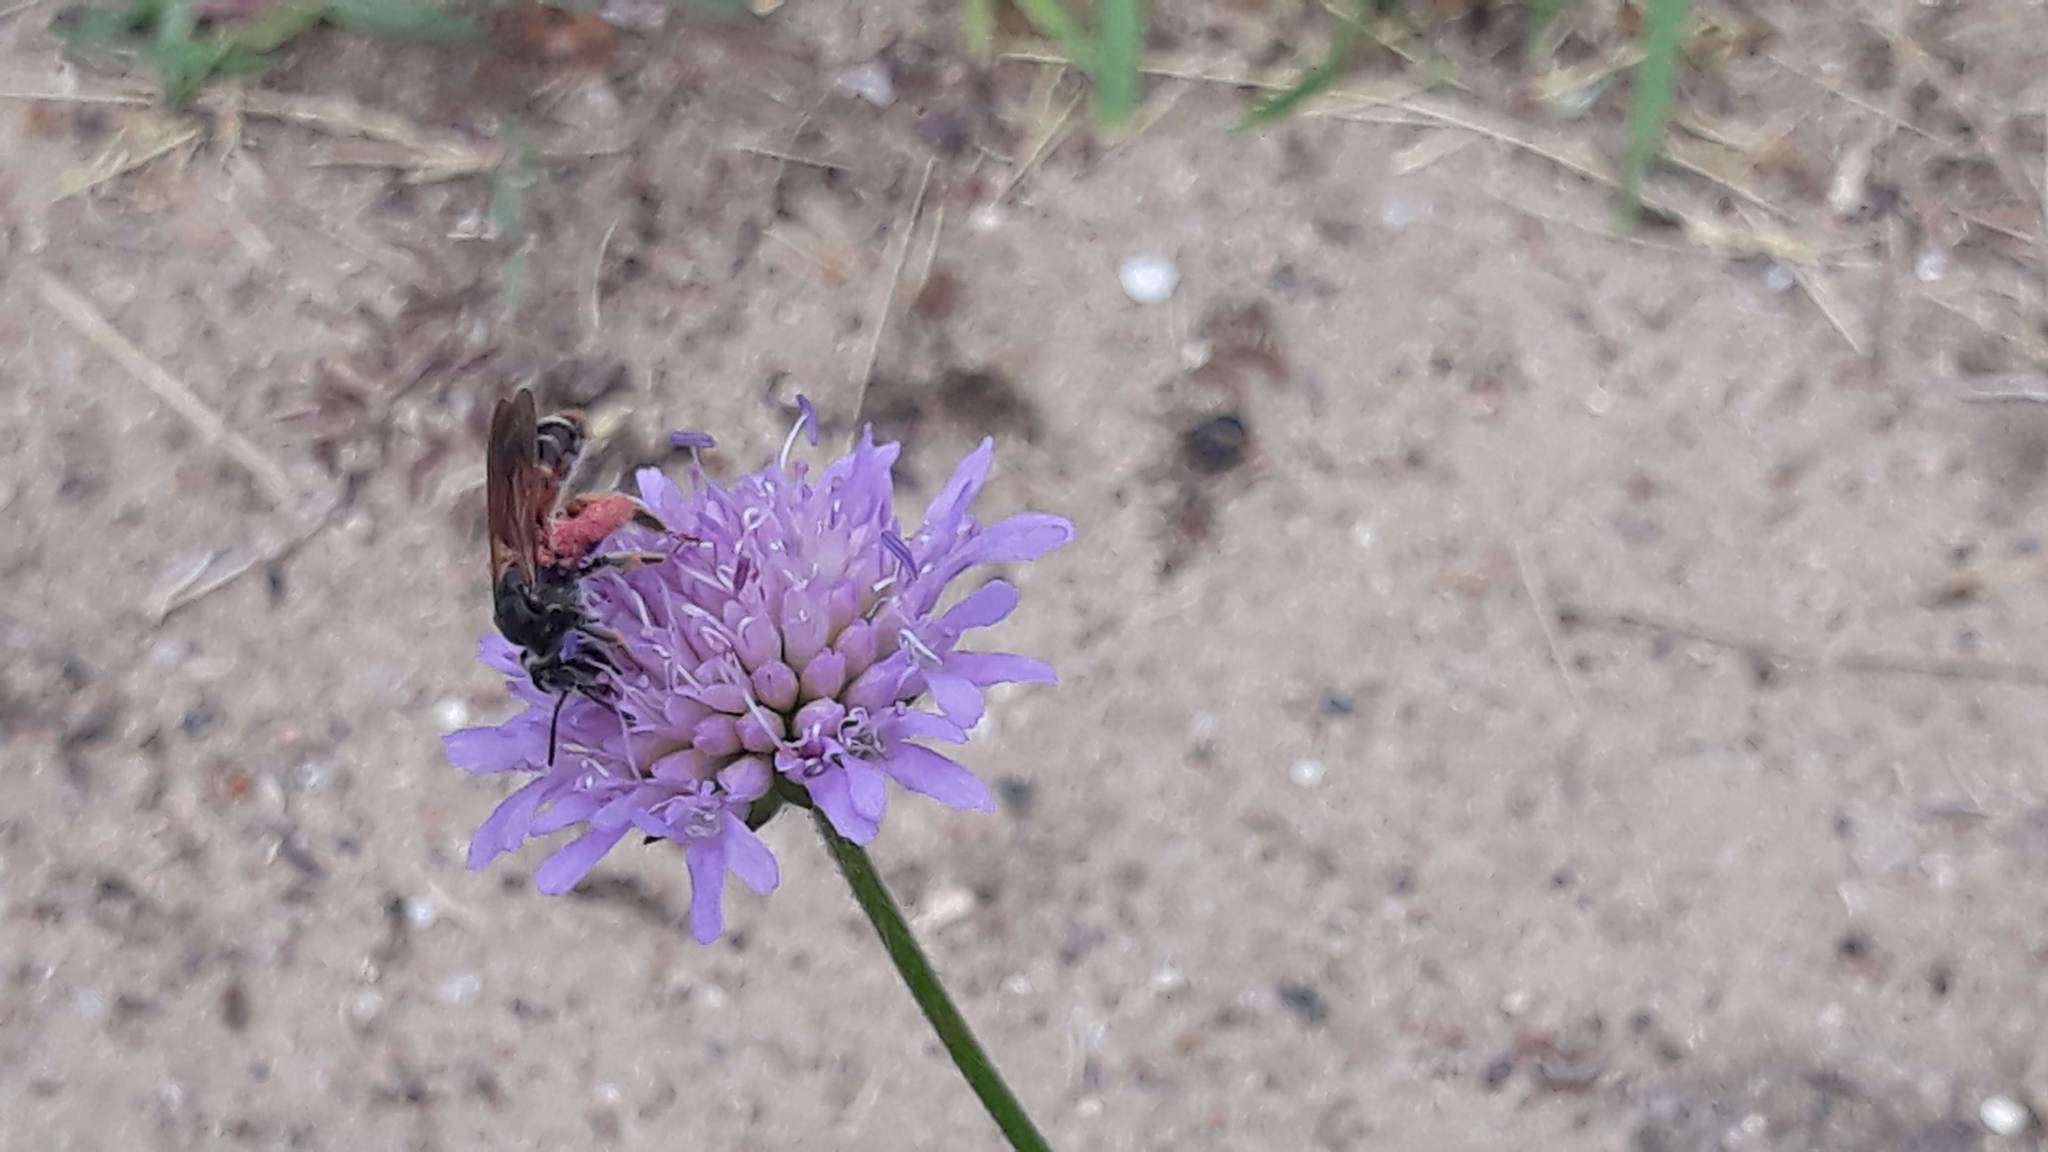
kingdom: Plantae
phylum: Tracheophyta
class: Magnoliopsida
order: Dipsacales
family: Caprifoliaceae
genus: Knautia
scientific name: Knautia arvensis
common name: Field scabiosa
